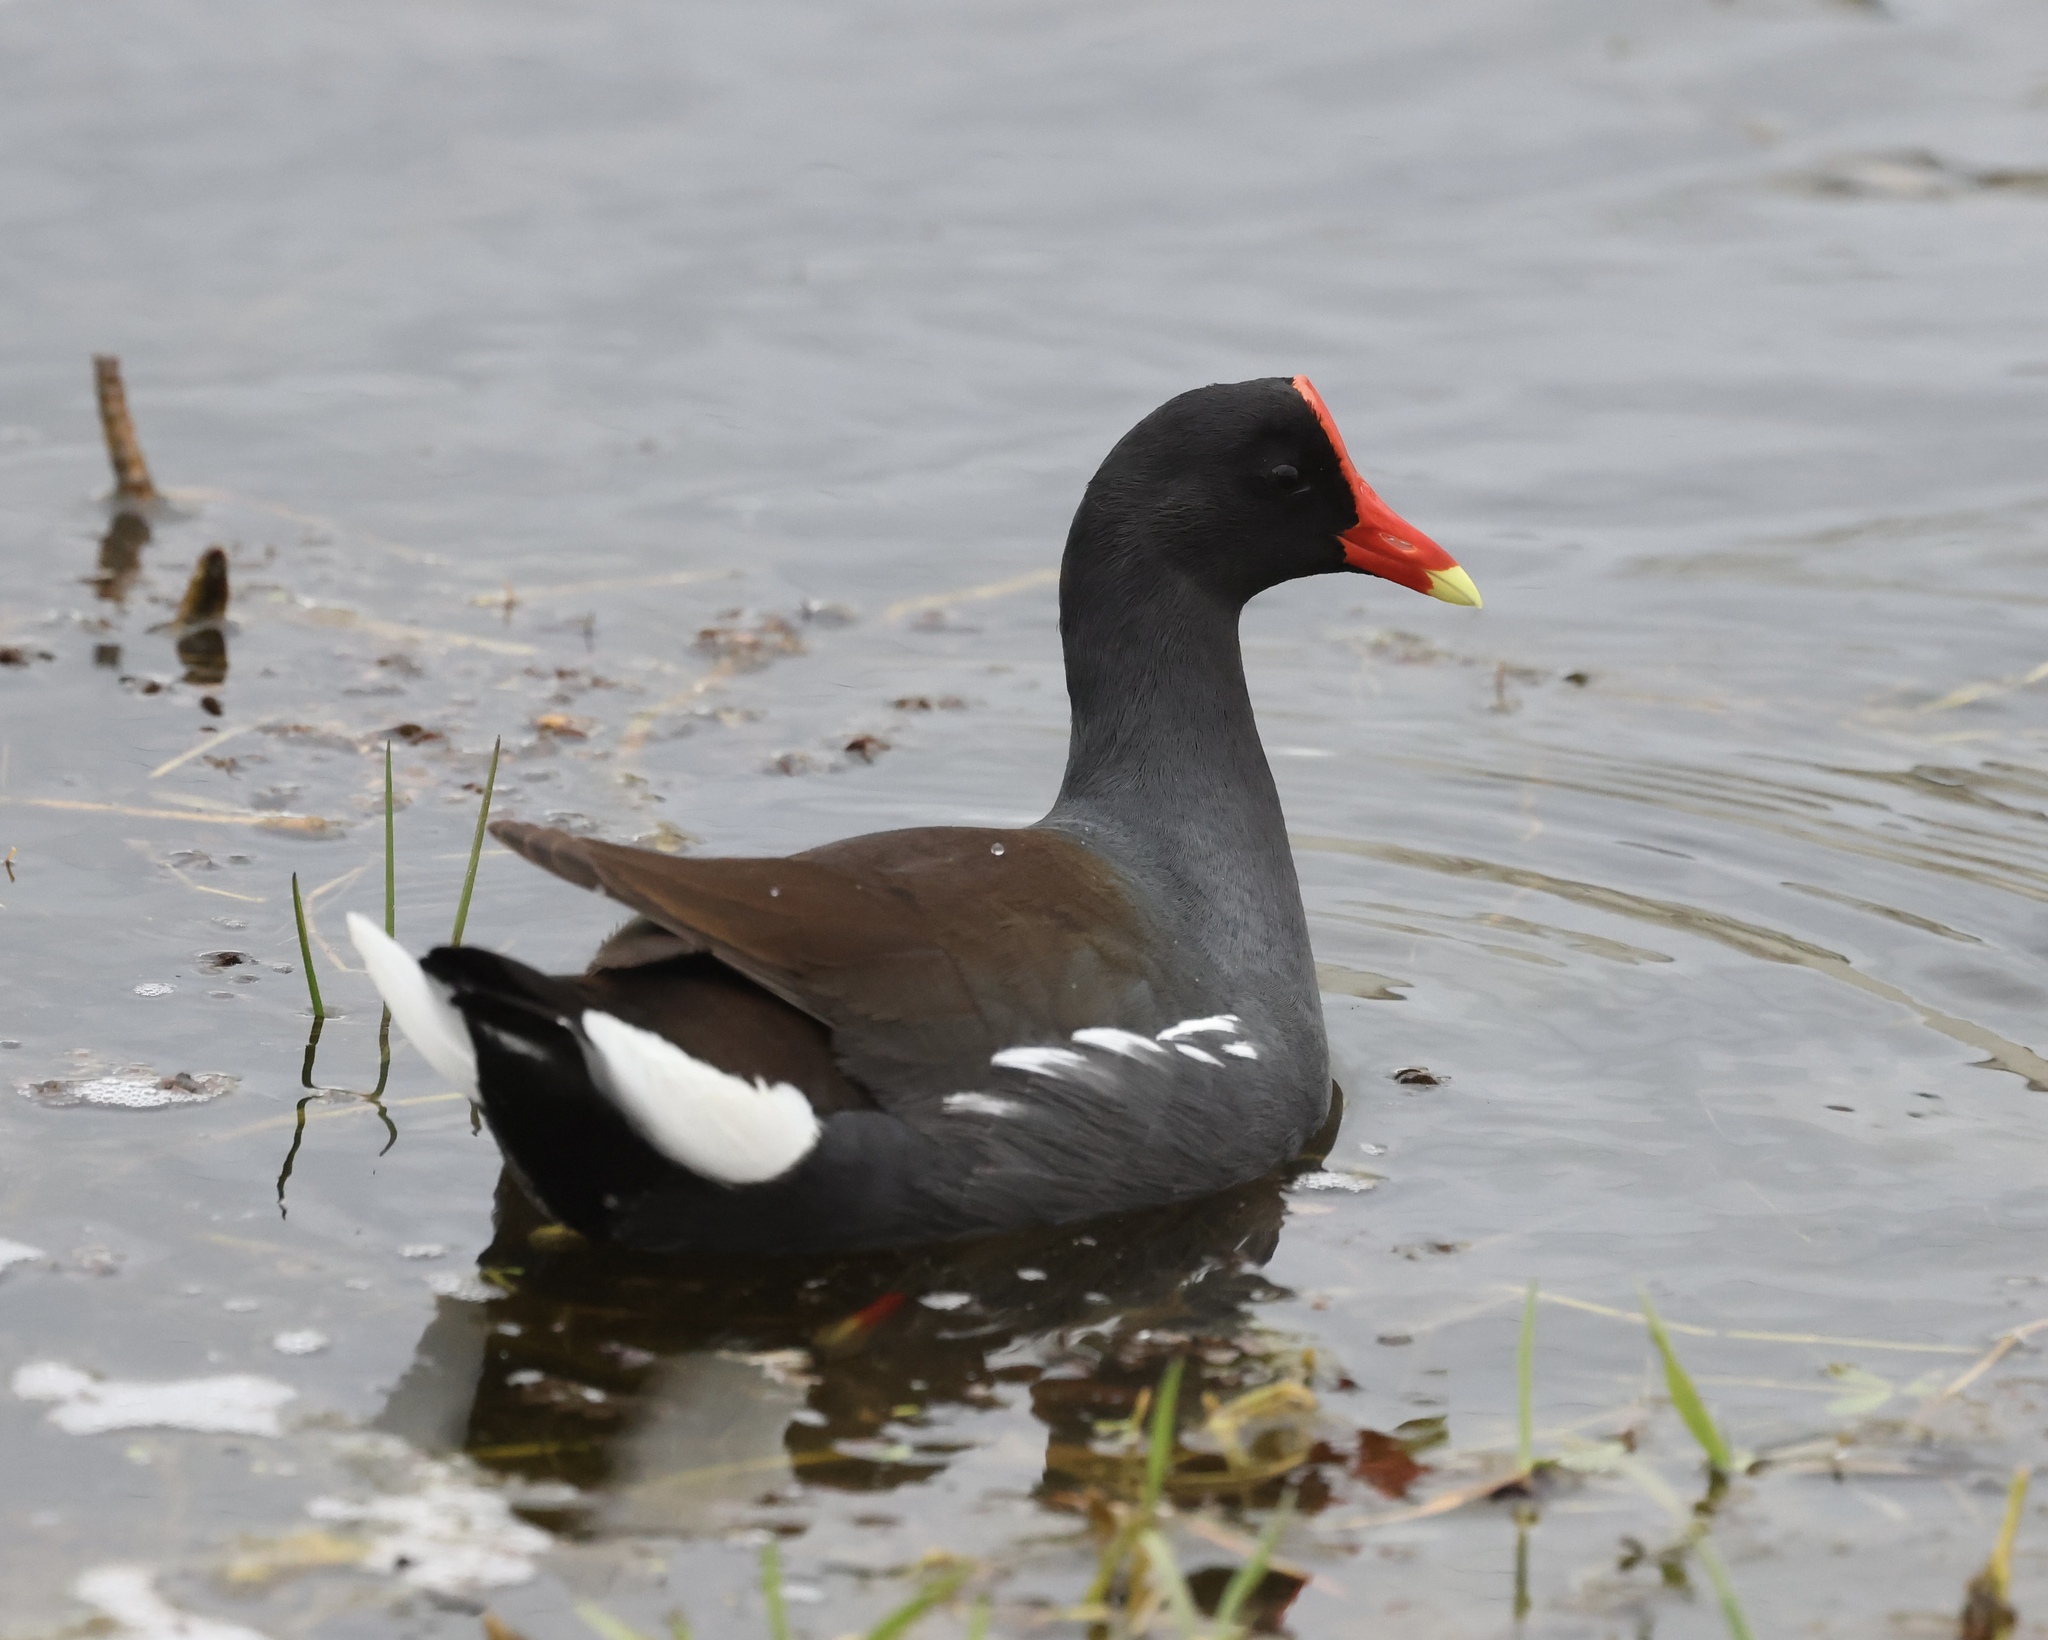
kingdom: Animalia
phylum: Chordata
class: Aves
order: Gruiformes
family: Rallidae
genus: Gallinula
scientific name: Gallinula chloropus
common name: Common moorhen
